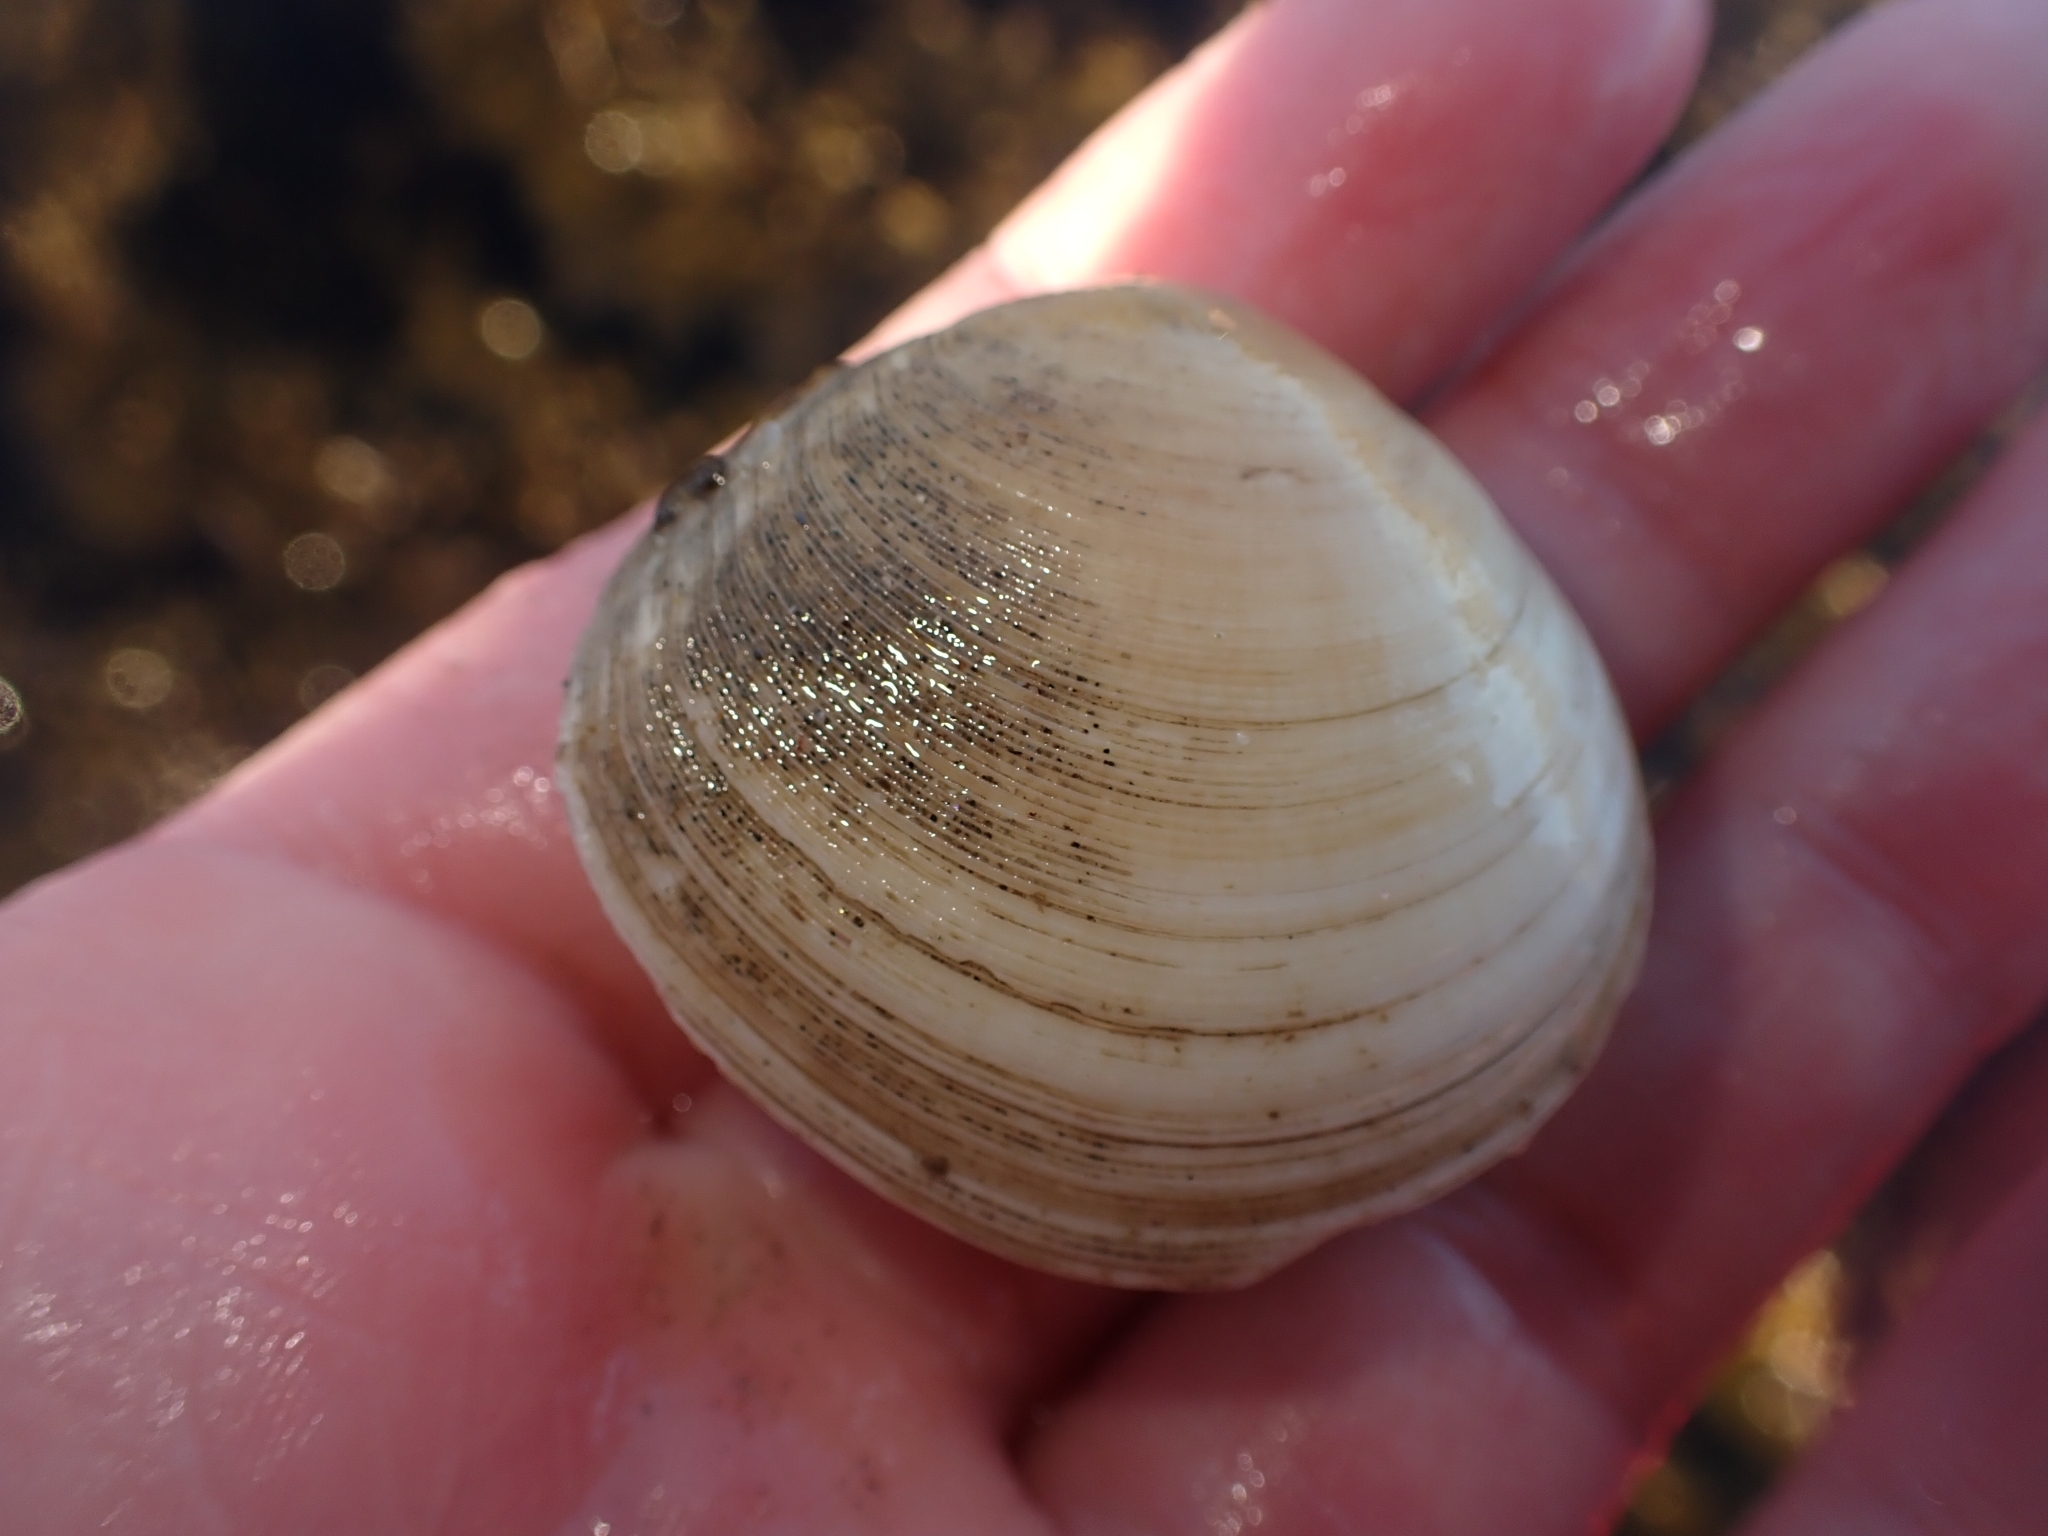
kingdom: Animalia
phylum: Mollusca
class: Bivalvia
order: Cardiida
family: Tellinidae
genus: Pseudarcopagia
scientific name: Pseudarcopagia disculus
